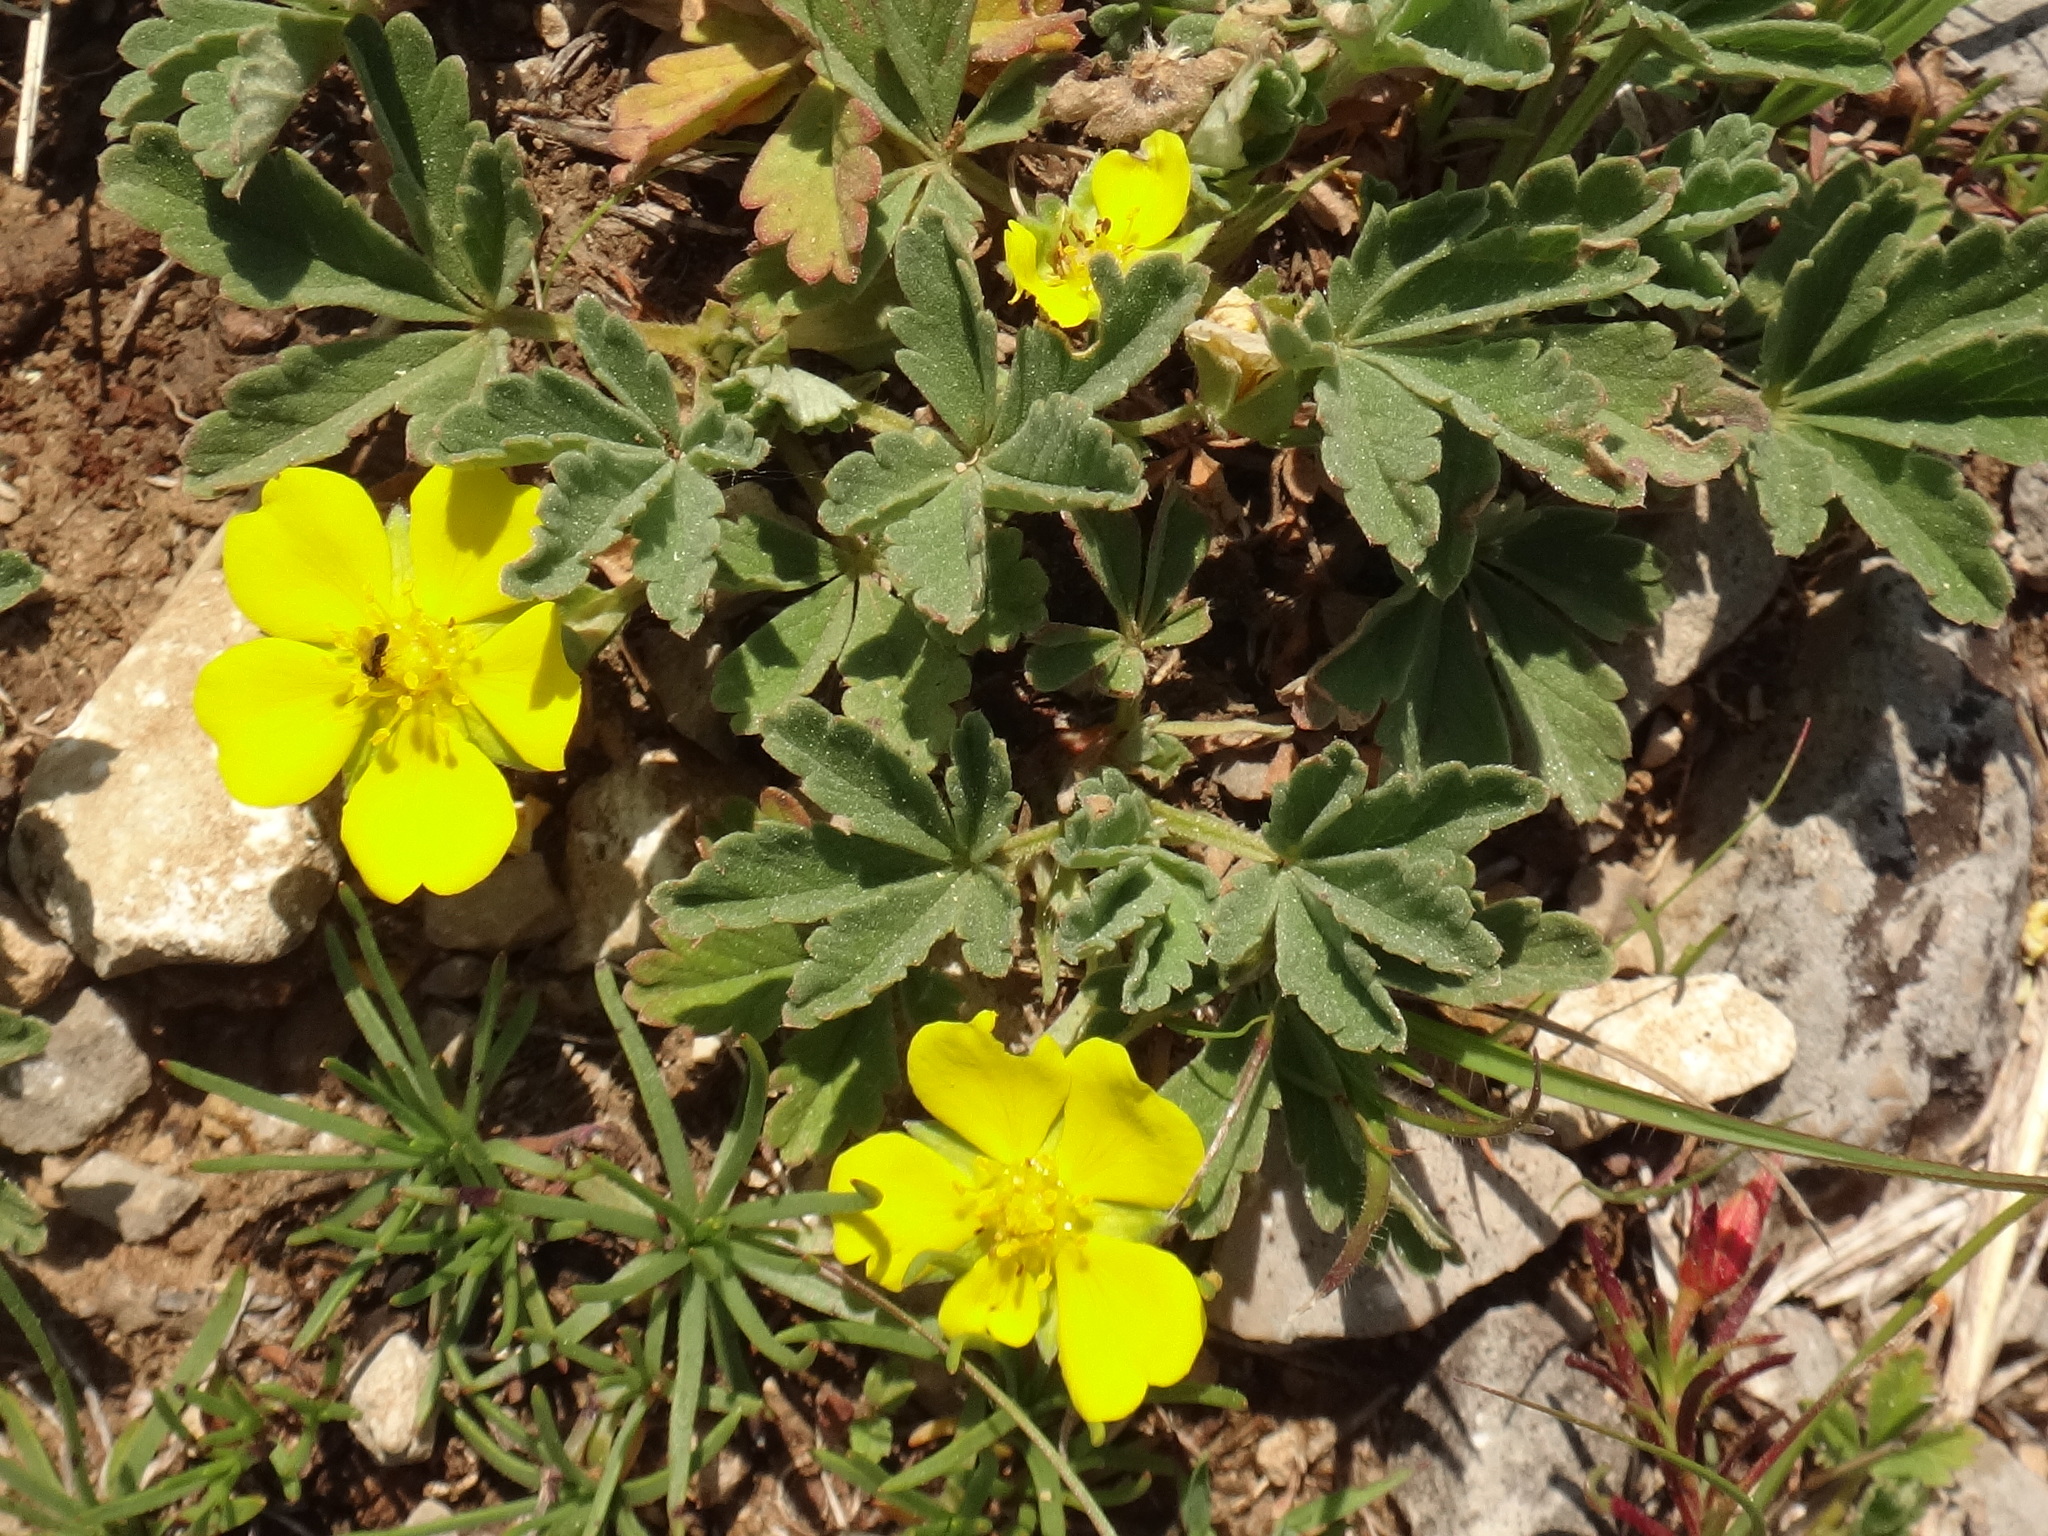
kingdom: Plantae
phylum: Tracheophyta
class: Magnoliopsida
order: Rosales
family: Rosaceae
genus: Potentilla
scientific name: Potentilla incana
